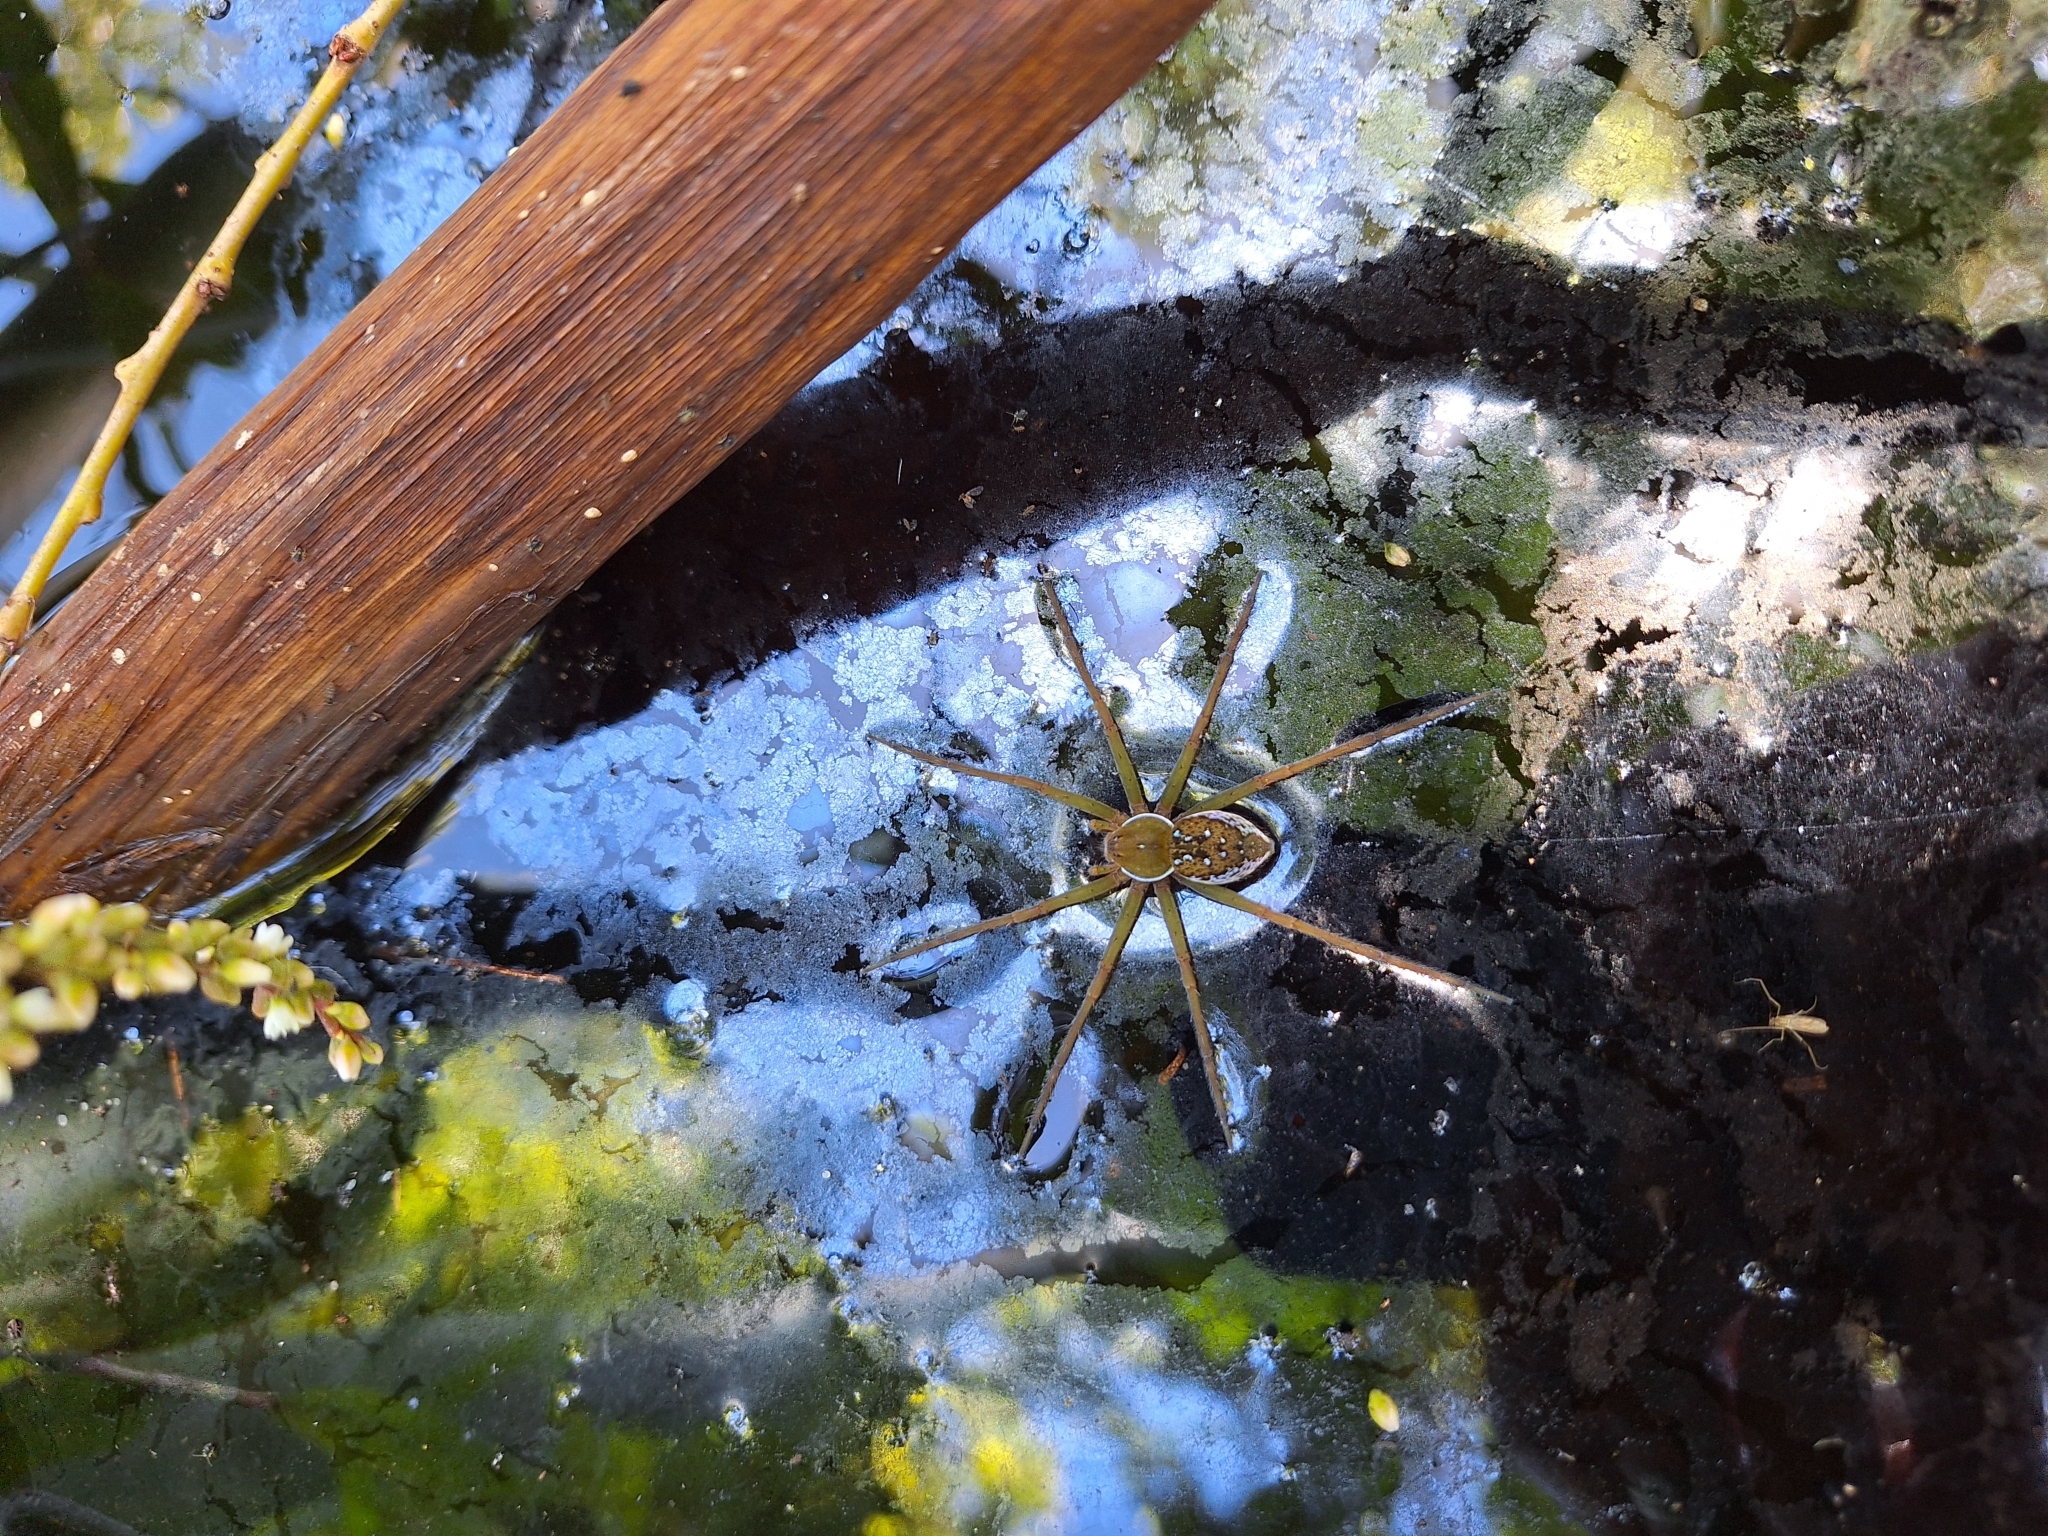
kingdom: Animalia
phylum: Arthropoda
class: Arachnida
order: Araneae
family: Pisauridae
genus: Thaumasia
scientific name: Thaumasia velox
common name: Nursery web spiders
